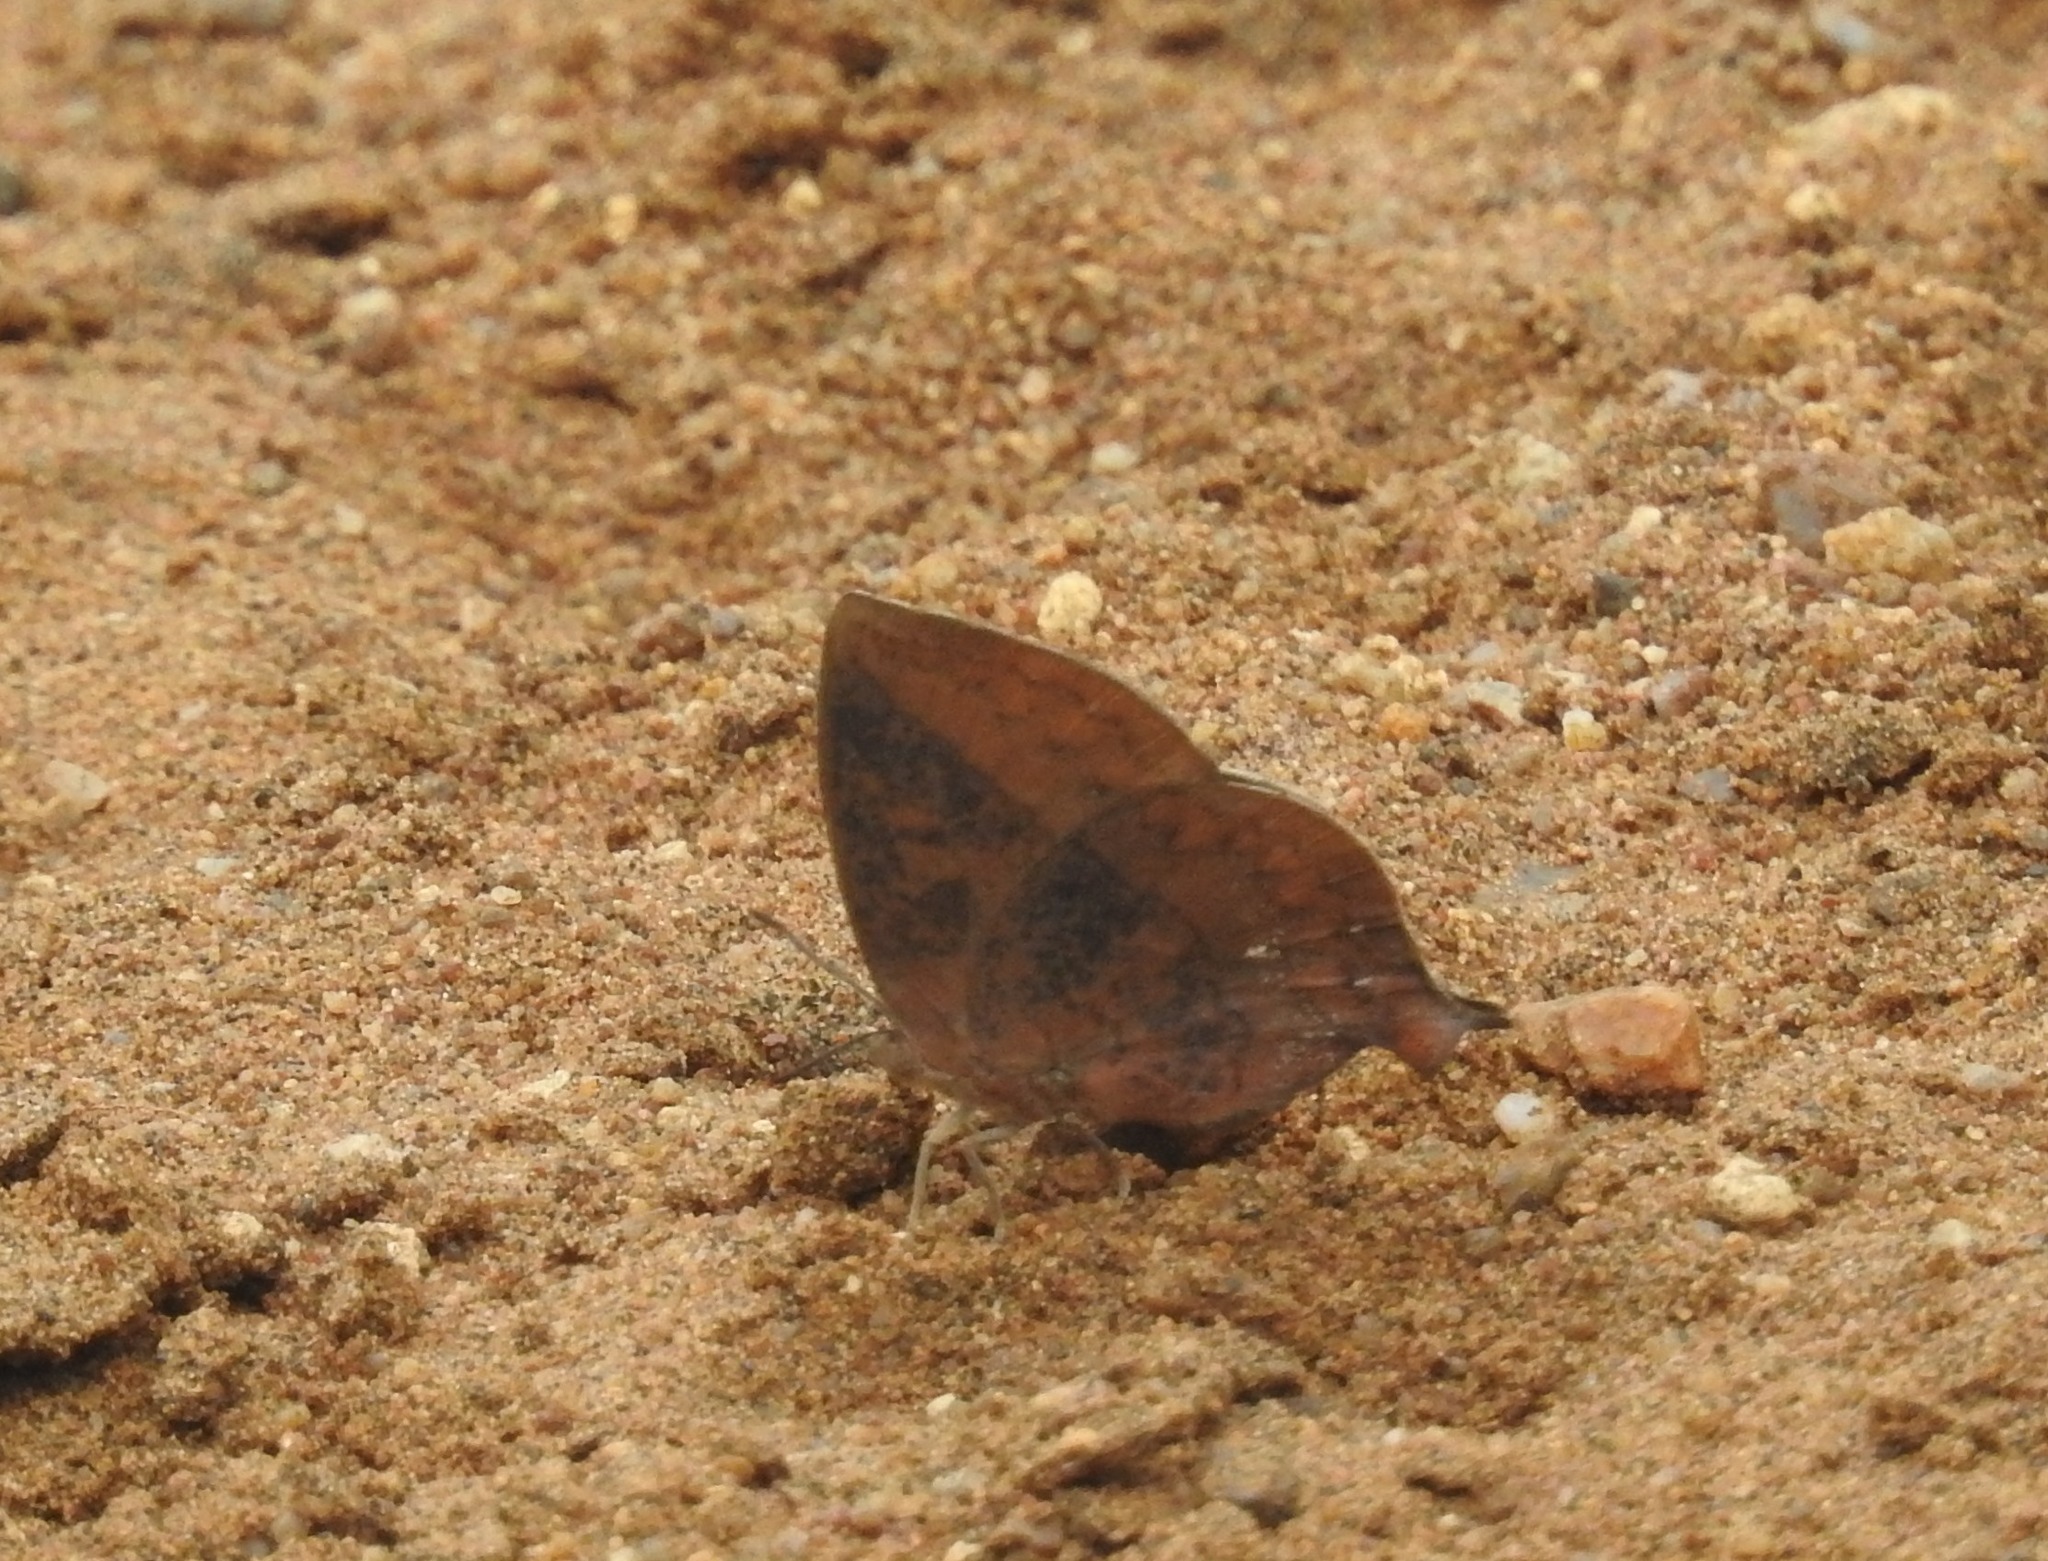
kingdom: Animalia
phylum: Arthropoda
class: Insecta
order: Lepidoptera
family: Lycaenidae
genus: Amblypodia
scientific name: Amblypodia anita
